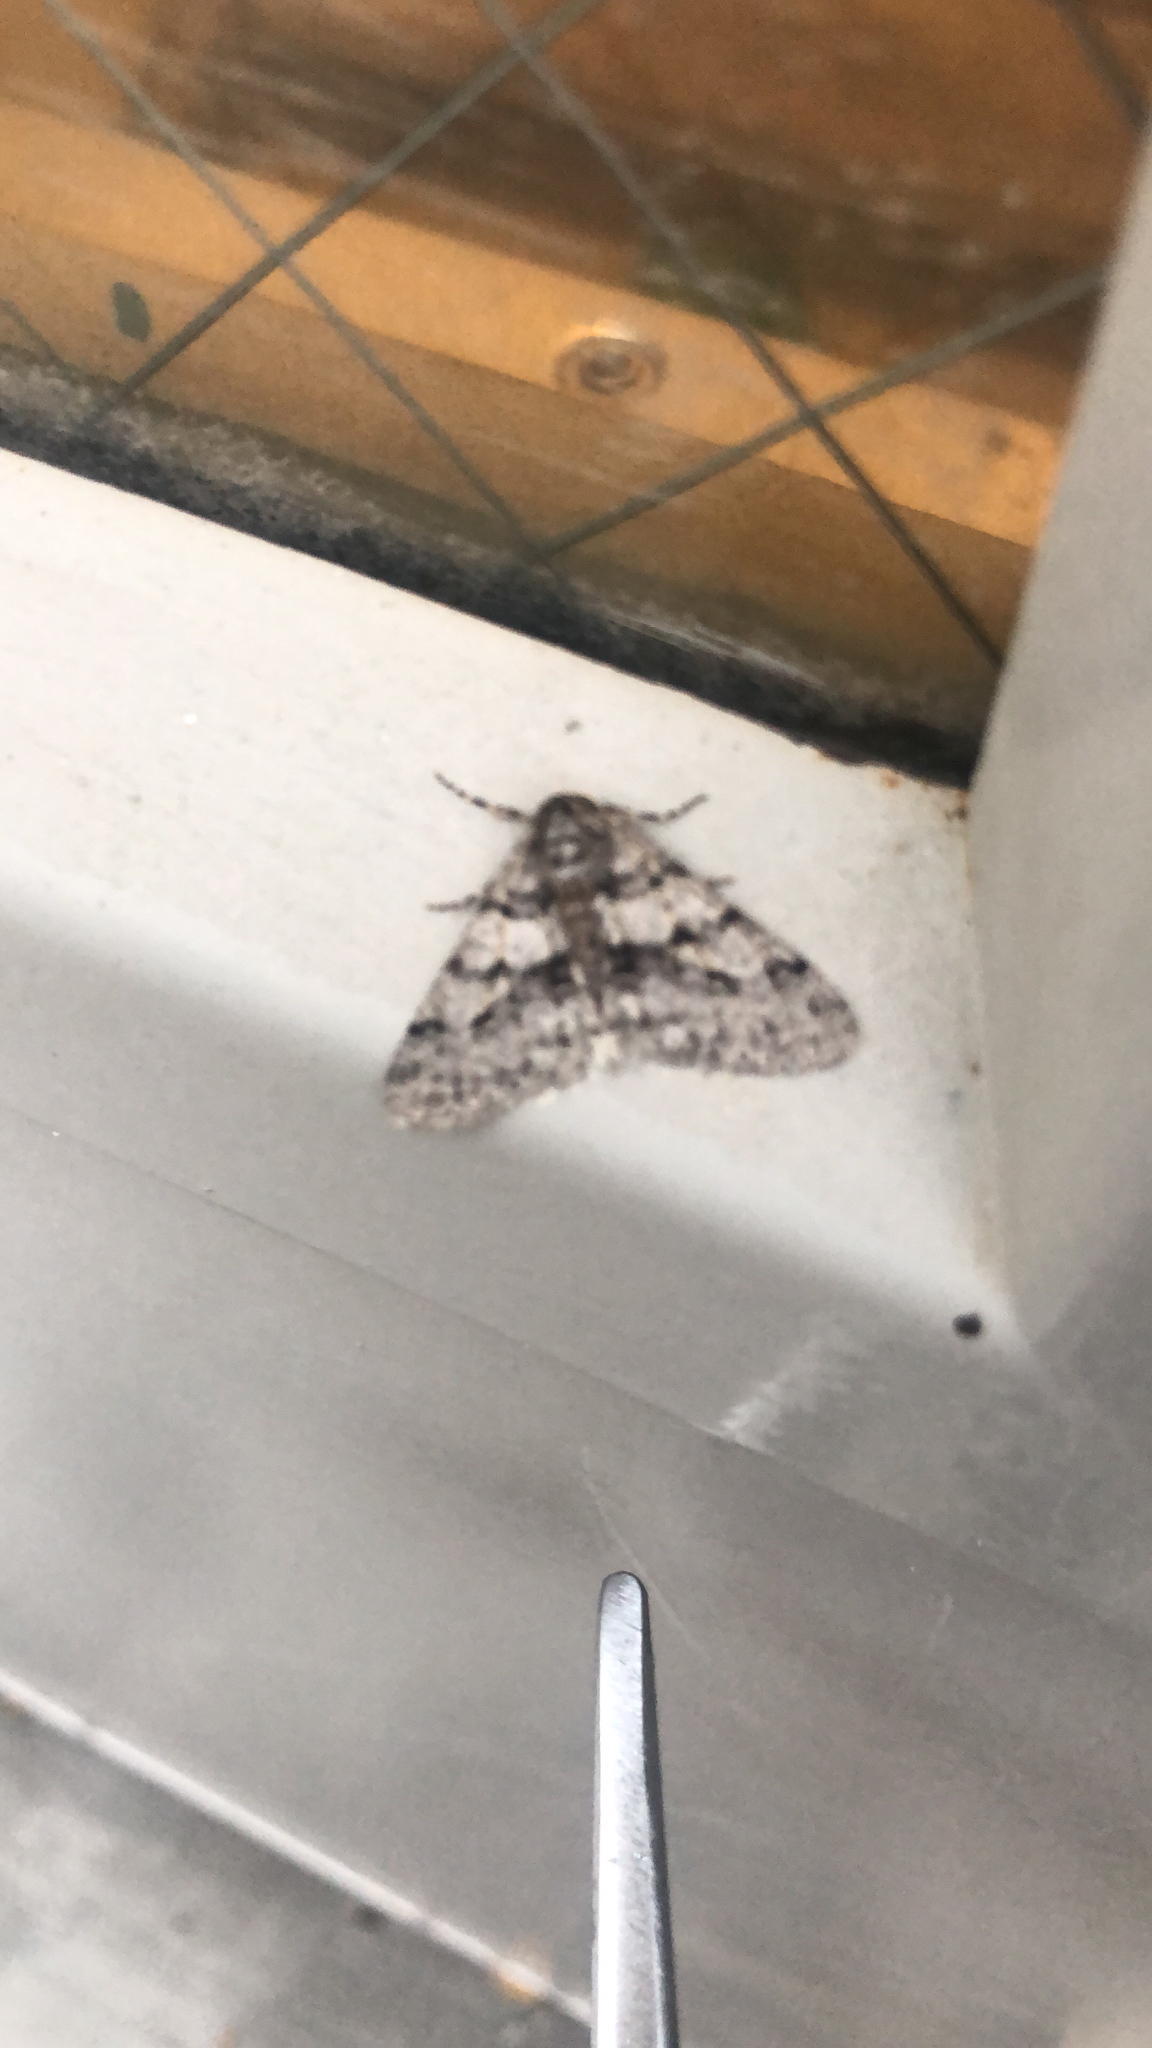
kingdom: Animalia
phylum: Arthropoda
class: Insecta
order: Lepidoptera
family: Geometridae
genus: Phigalia
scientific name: Phigalia titea
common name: Spiny looper
